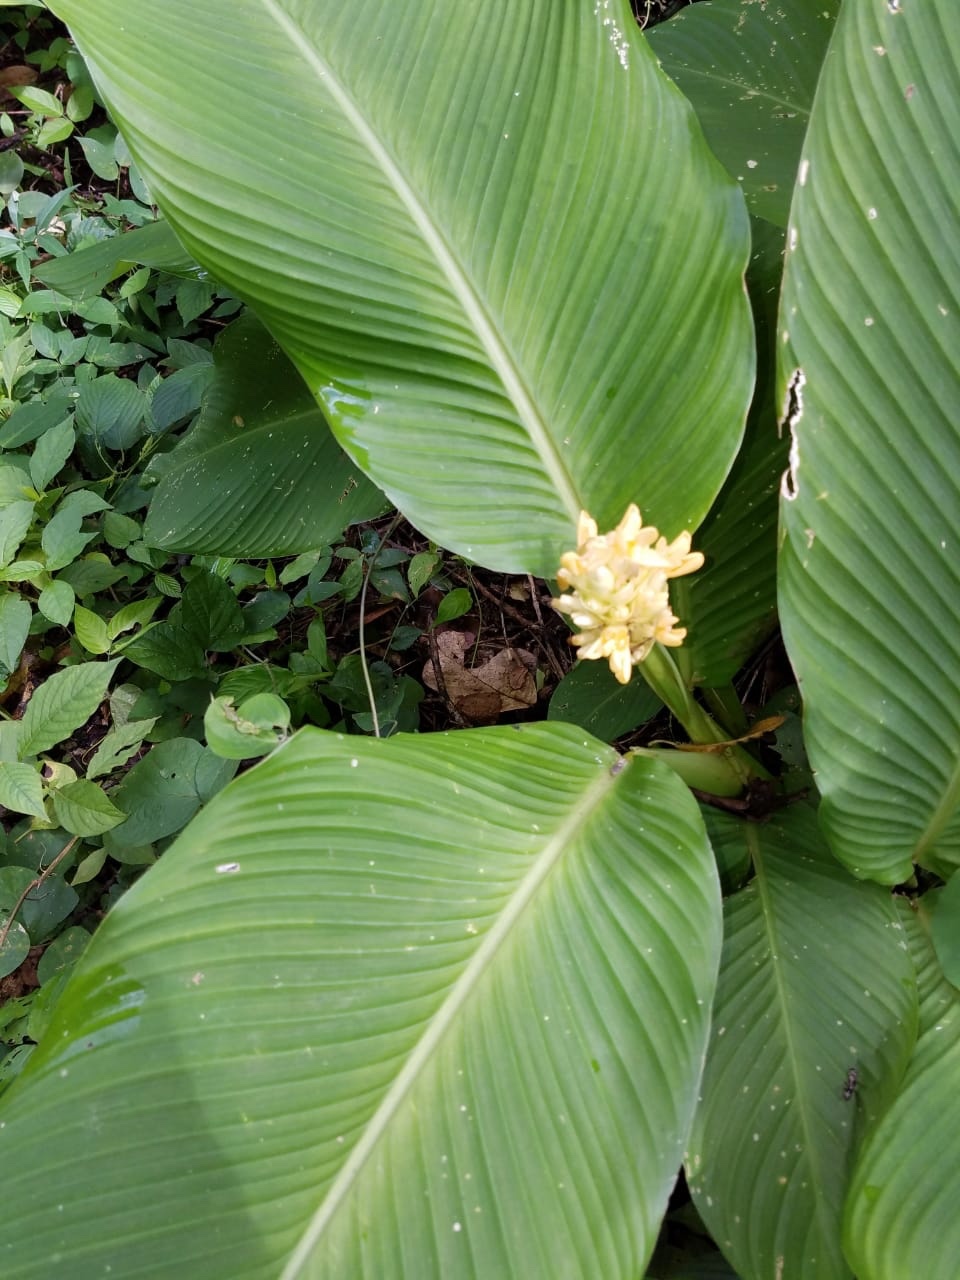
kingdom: Plantae
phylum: Tracheophyta
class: Liliopsida
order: Zingiberales
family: Marantaceae
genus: Goeppertia
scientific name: Goeppertia macrosepala
